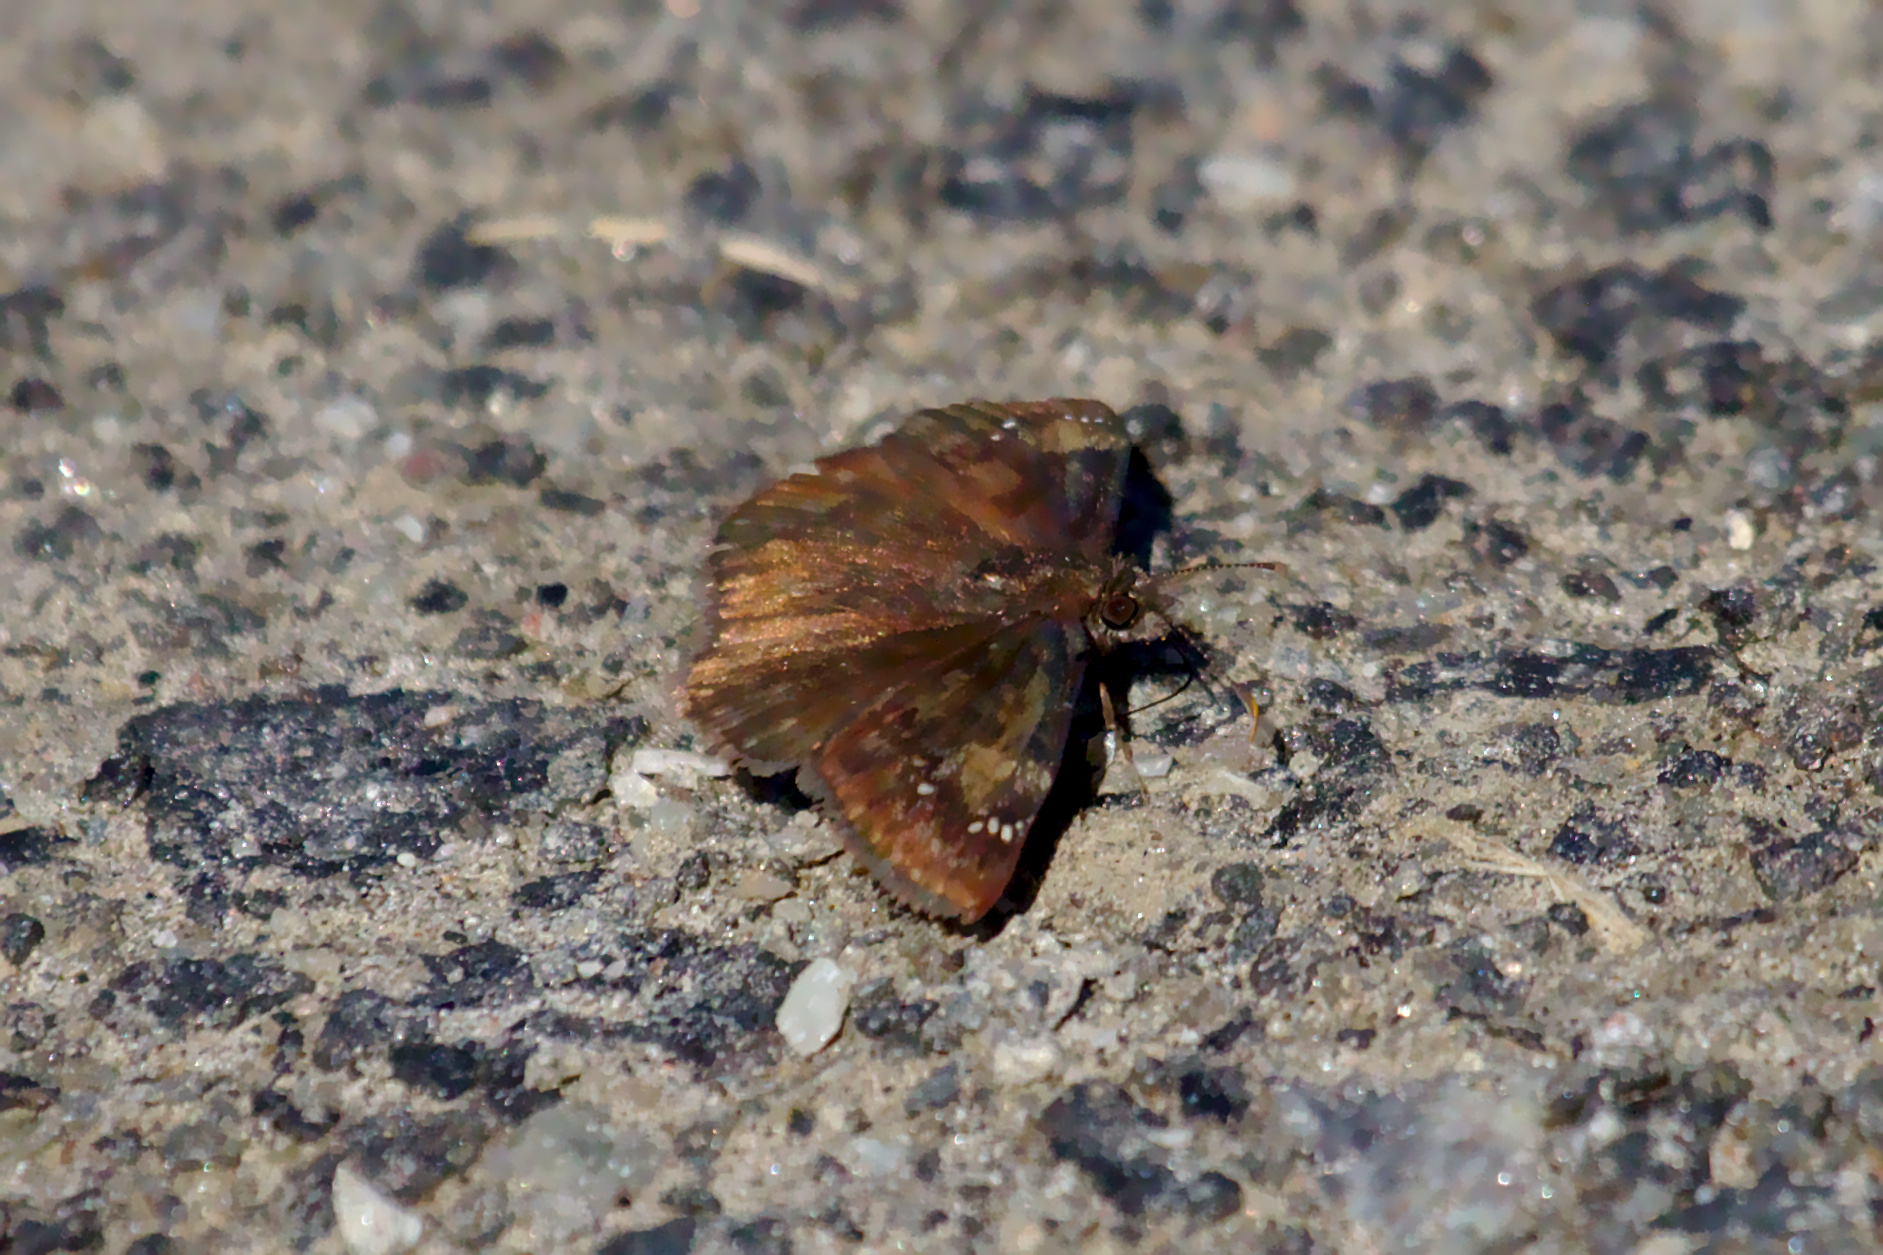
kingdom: Animalia
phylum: Arthropoda
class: Insecta
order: Lepidoptera
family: Hesperiidae
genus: Erynnis
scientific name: Erynnis baptisiae
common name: Wild indigo duskywing
